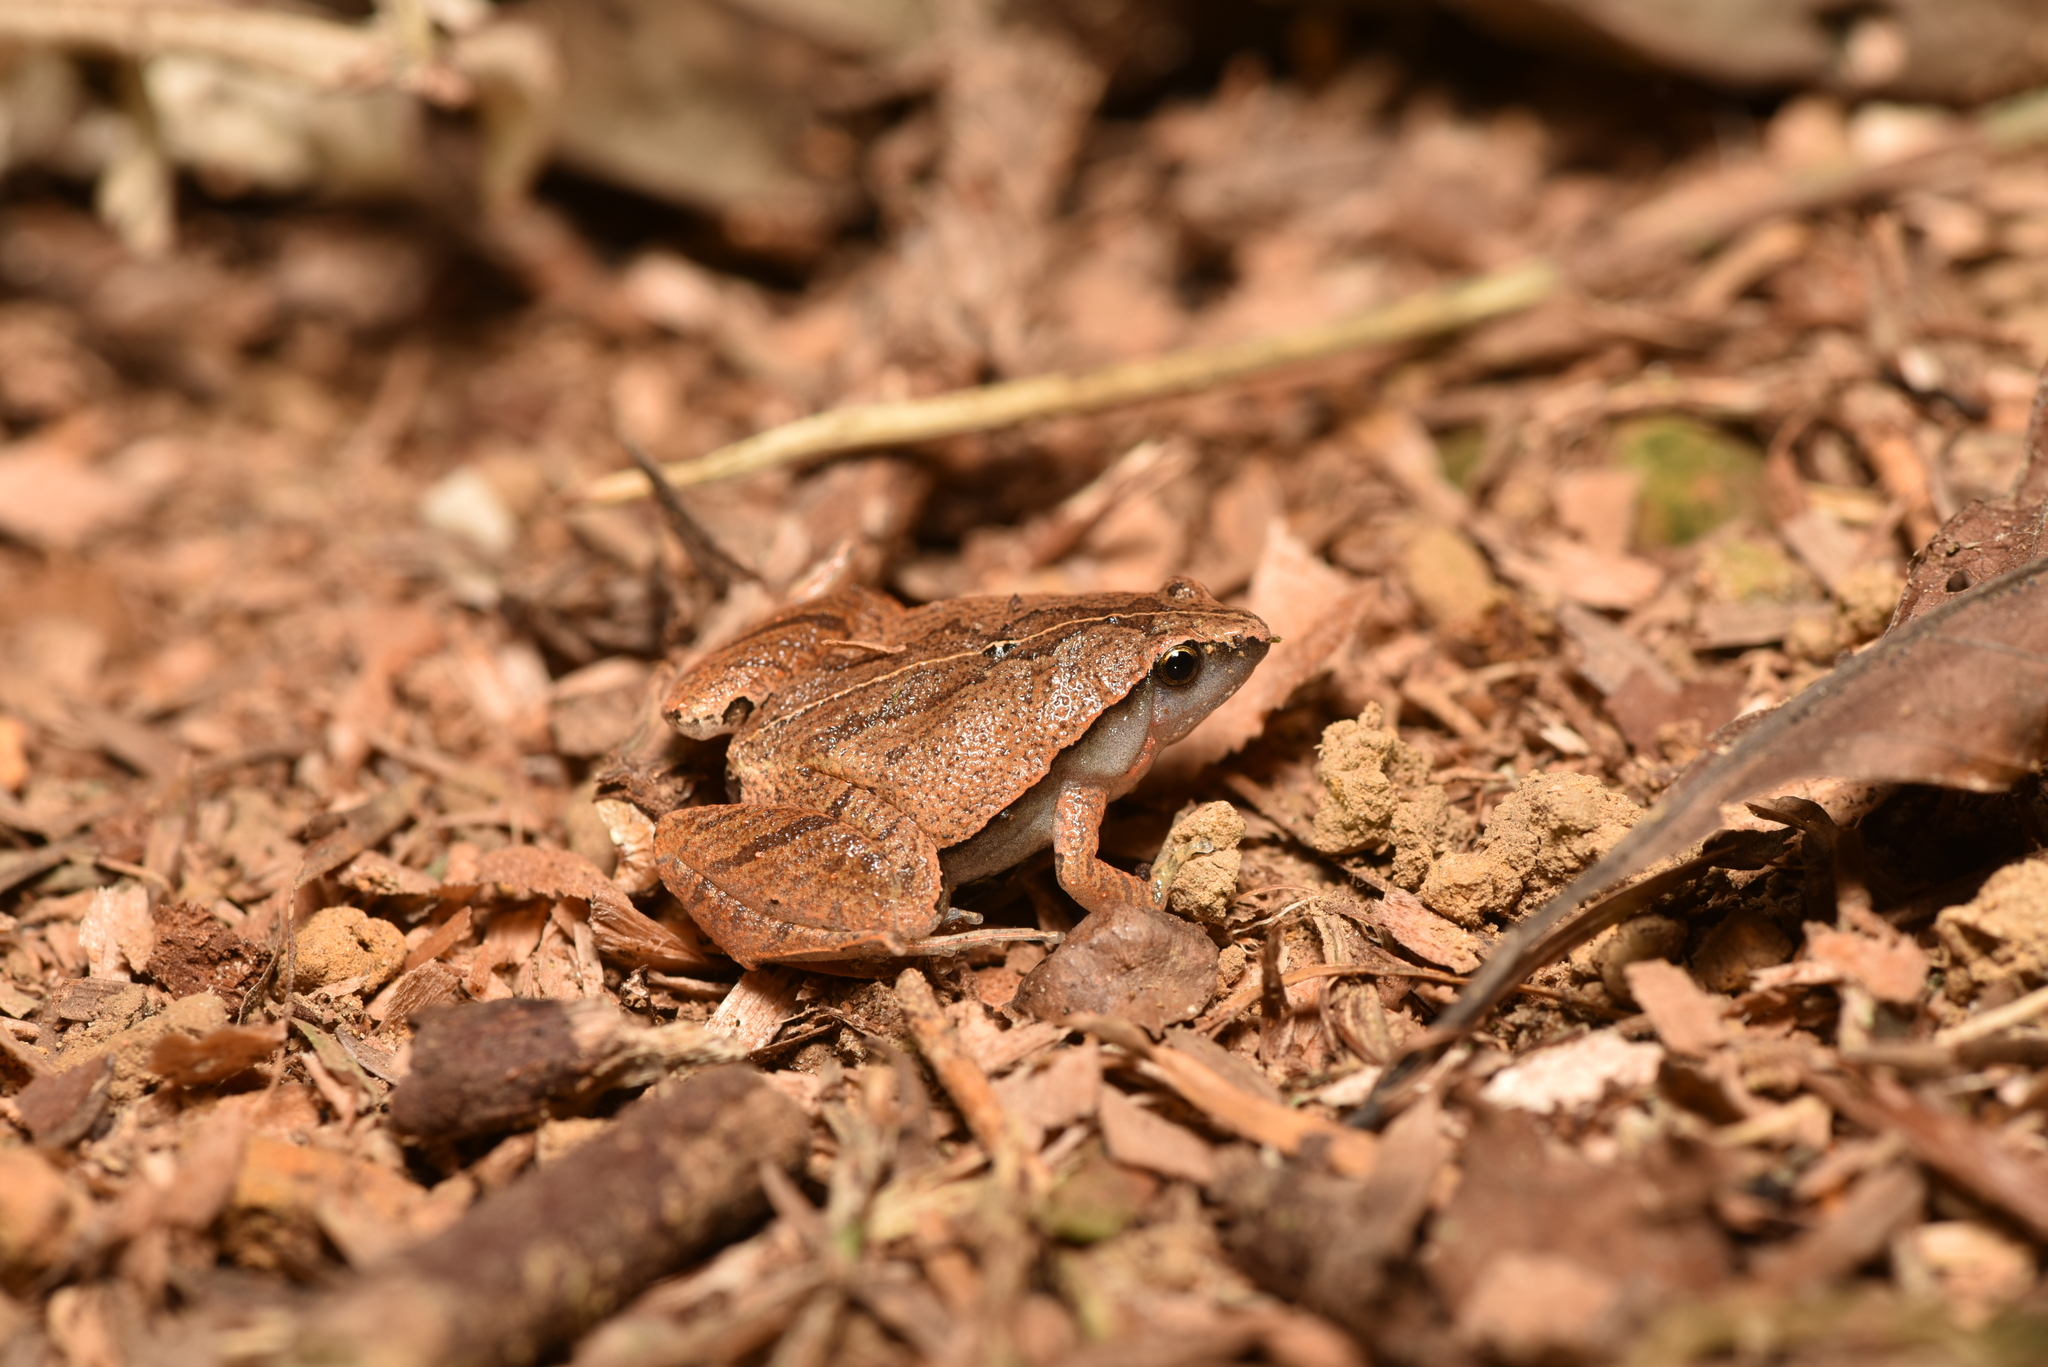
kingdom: Animalia
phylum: Chordata
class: Amphibia
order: Anura
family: Microhylidae
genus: Microhyla
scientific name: Microhyla heymonsi
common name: Taiwan rice frog,dark sided chorus frog
